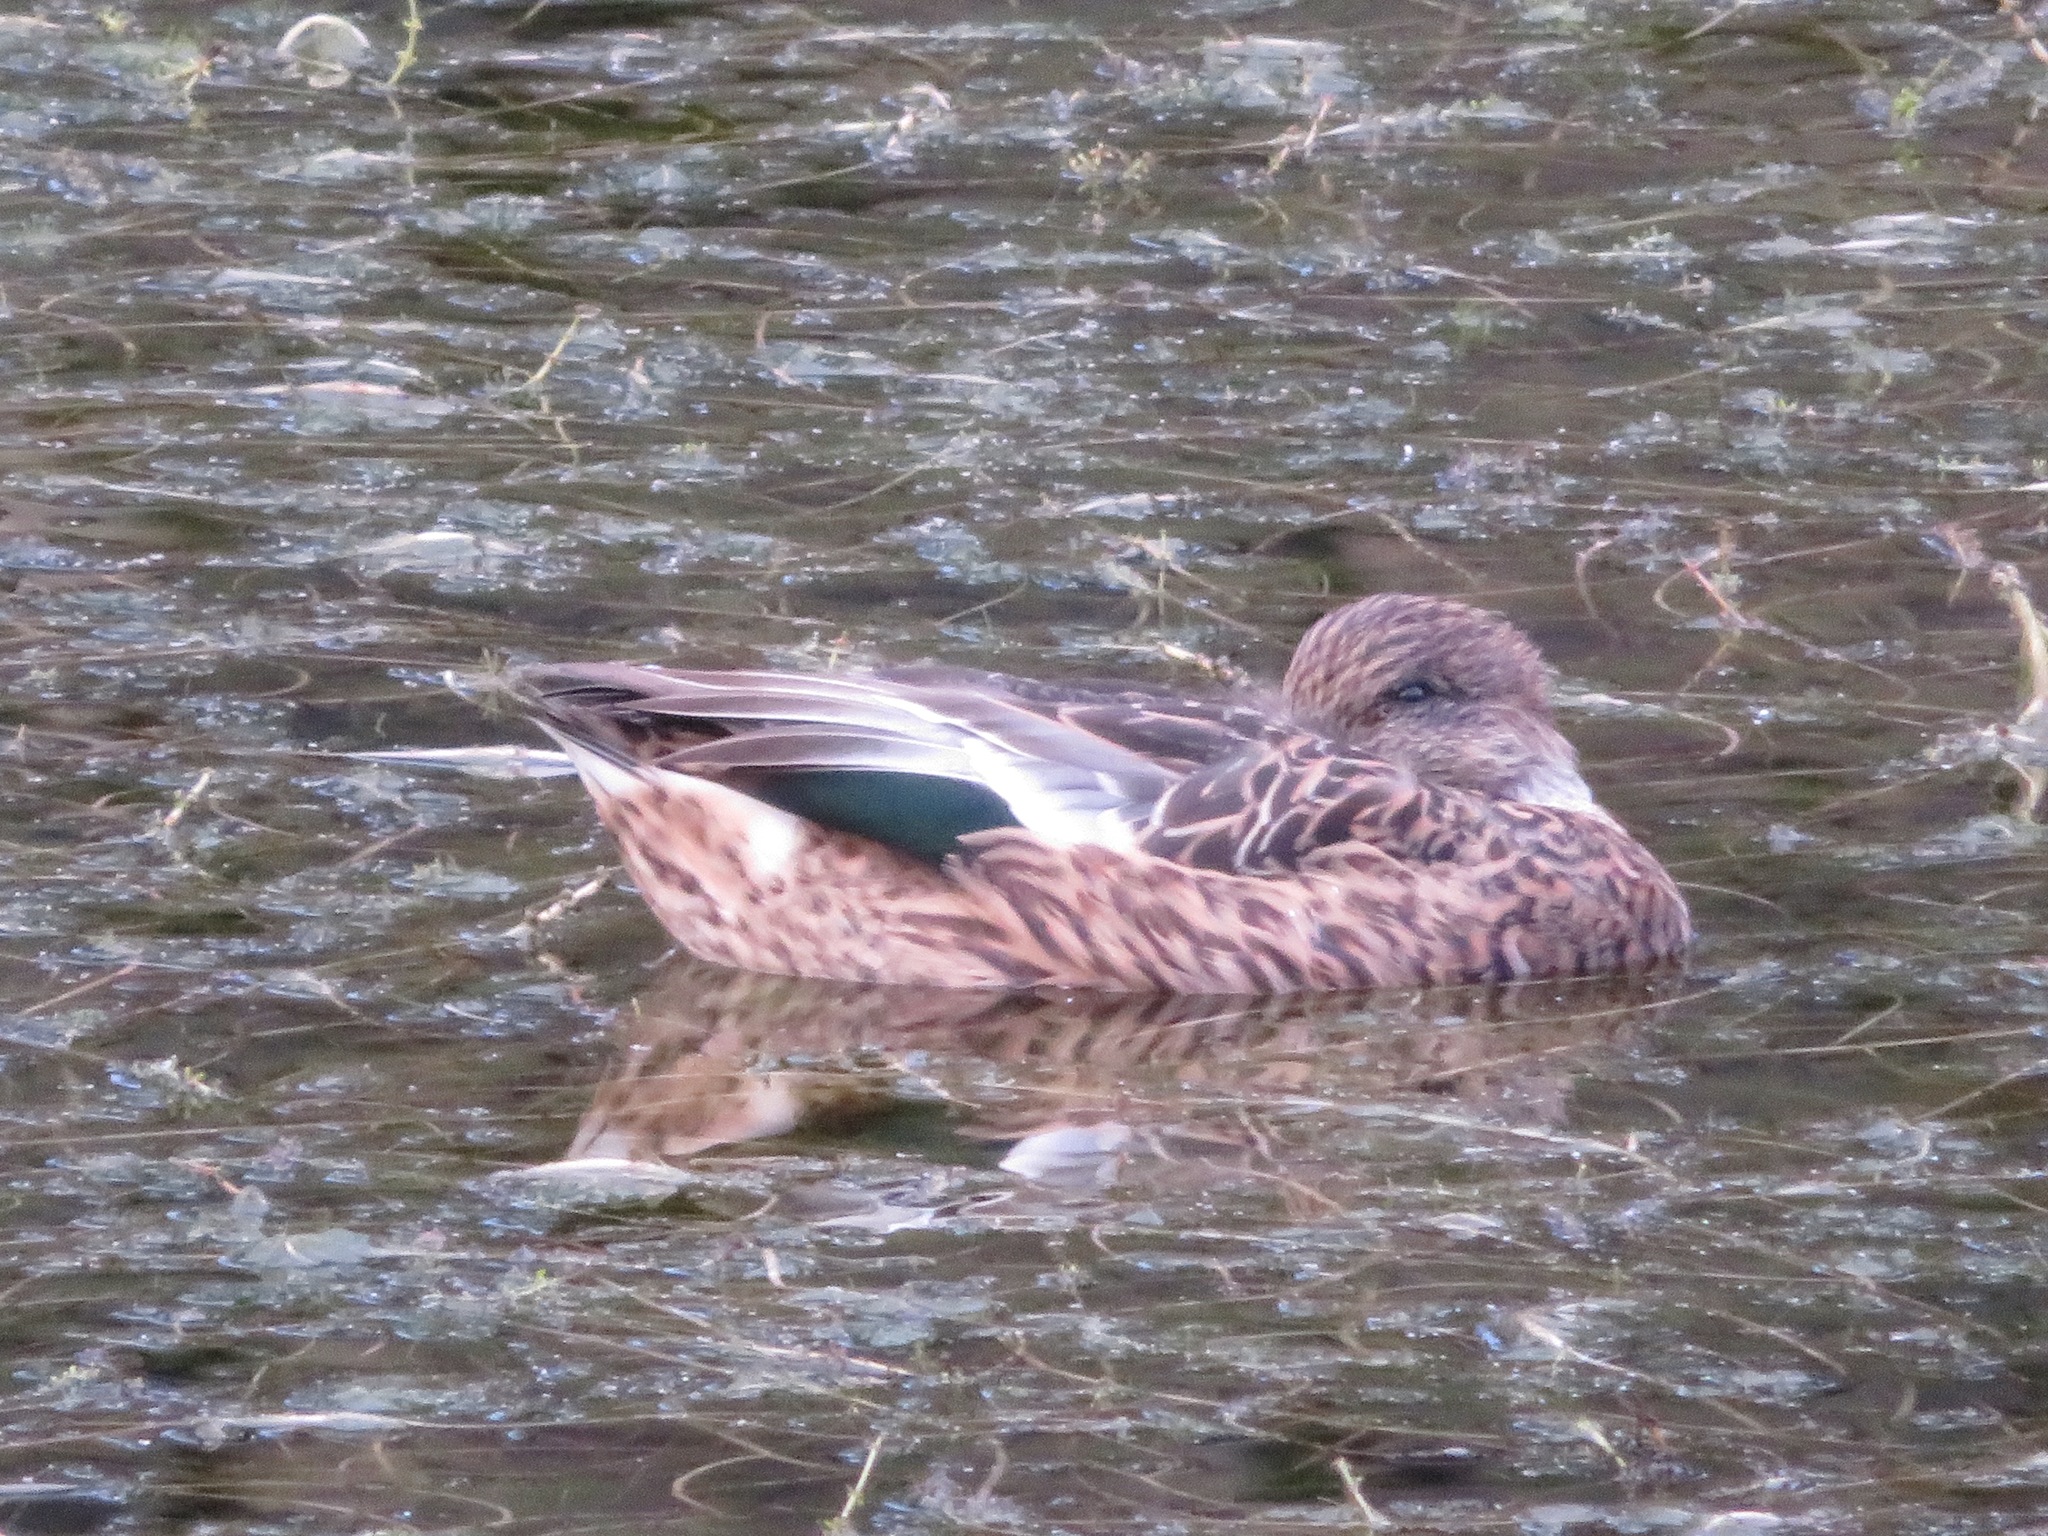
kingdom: Animalia
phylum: Chordata
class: Aves
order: Anseriformes
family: Anatidae
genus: Mareca
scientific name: Mareca falcata
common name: Falcated duck
